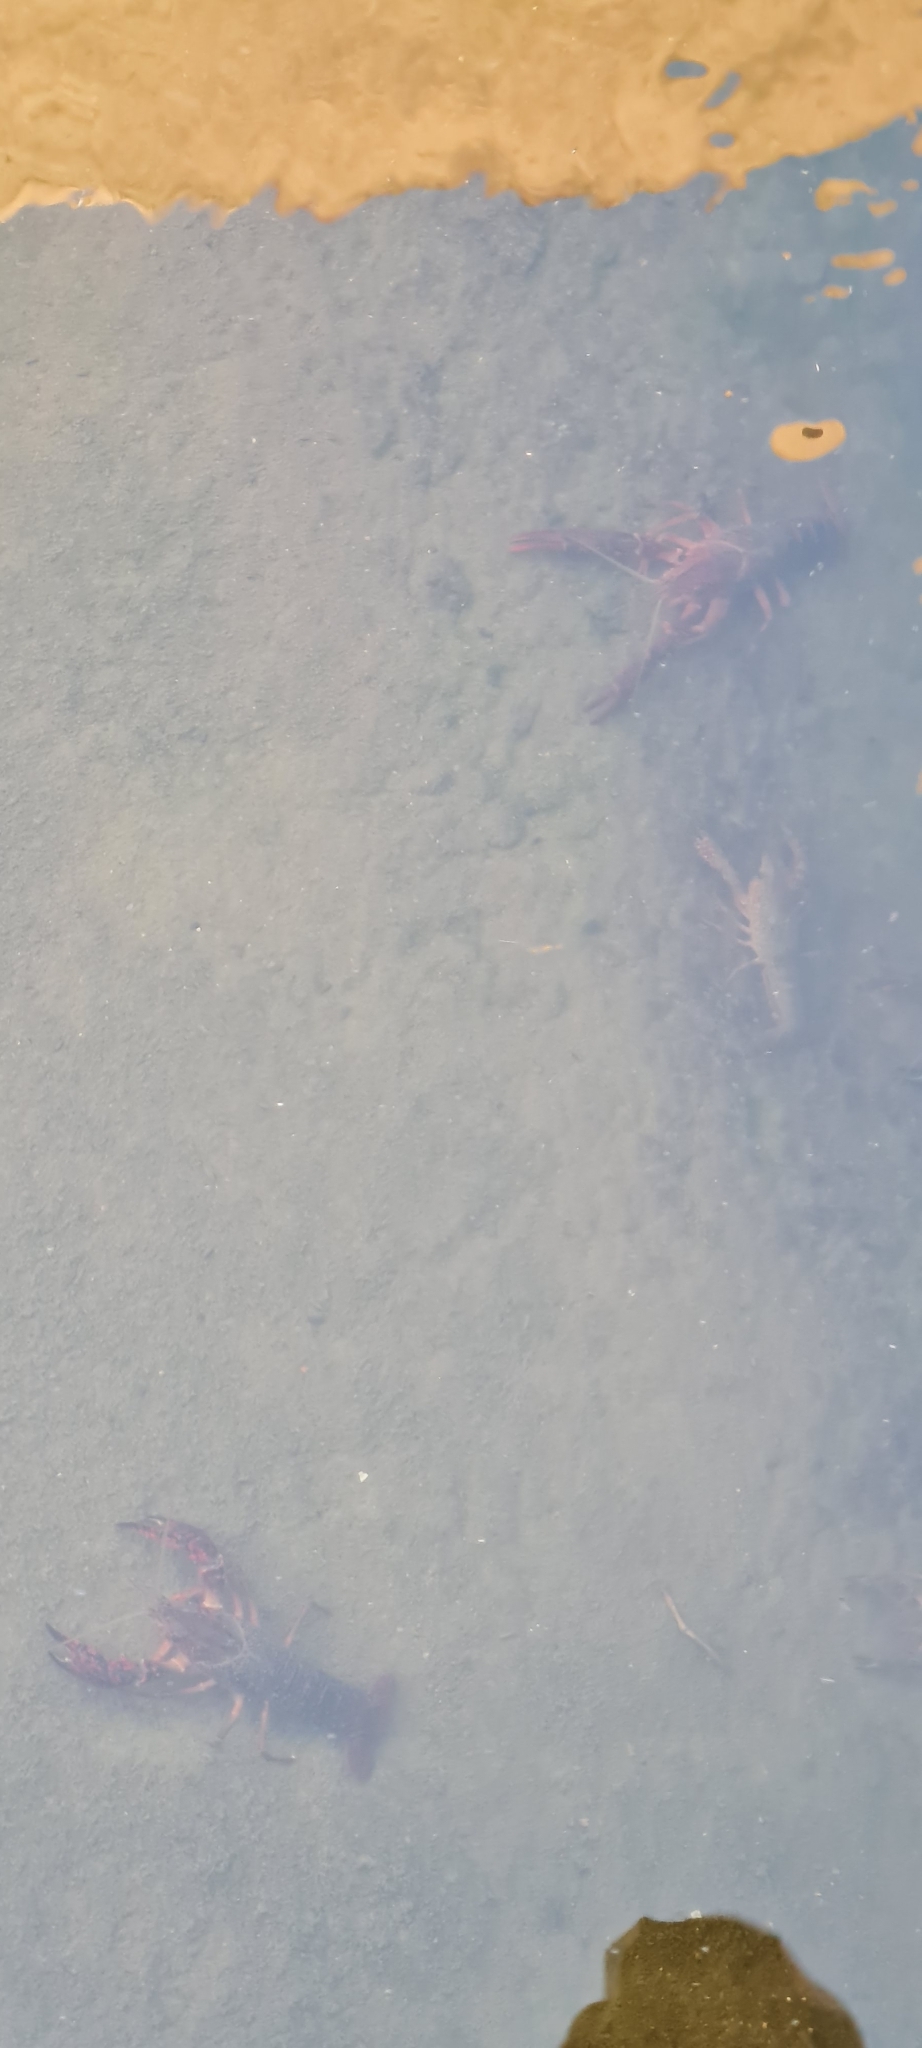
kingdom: Animalia
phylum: Arthropoda
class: Malacostraca
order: Decapoda
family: Cambaridae
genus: Procambarus
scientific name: Procambarus clarkii
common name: Red swamp crayfish
